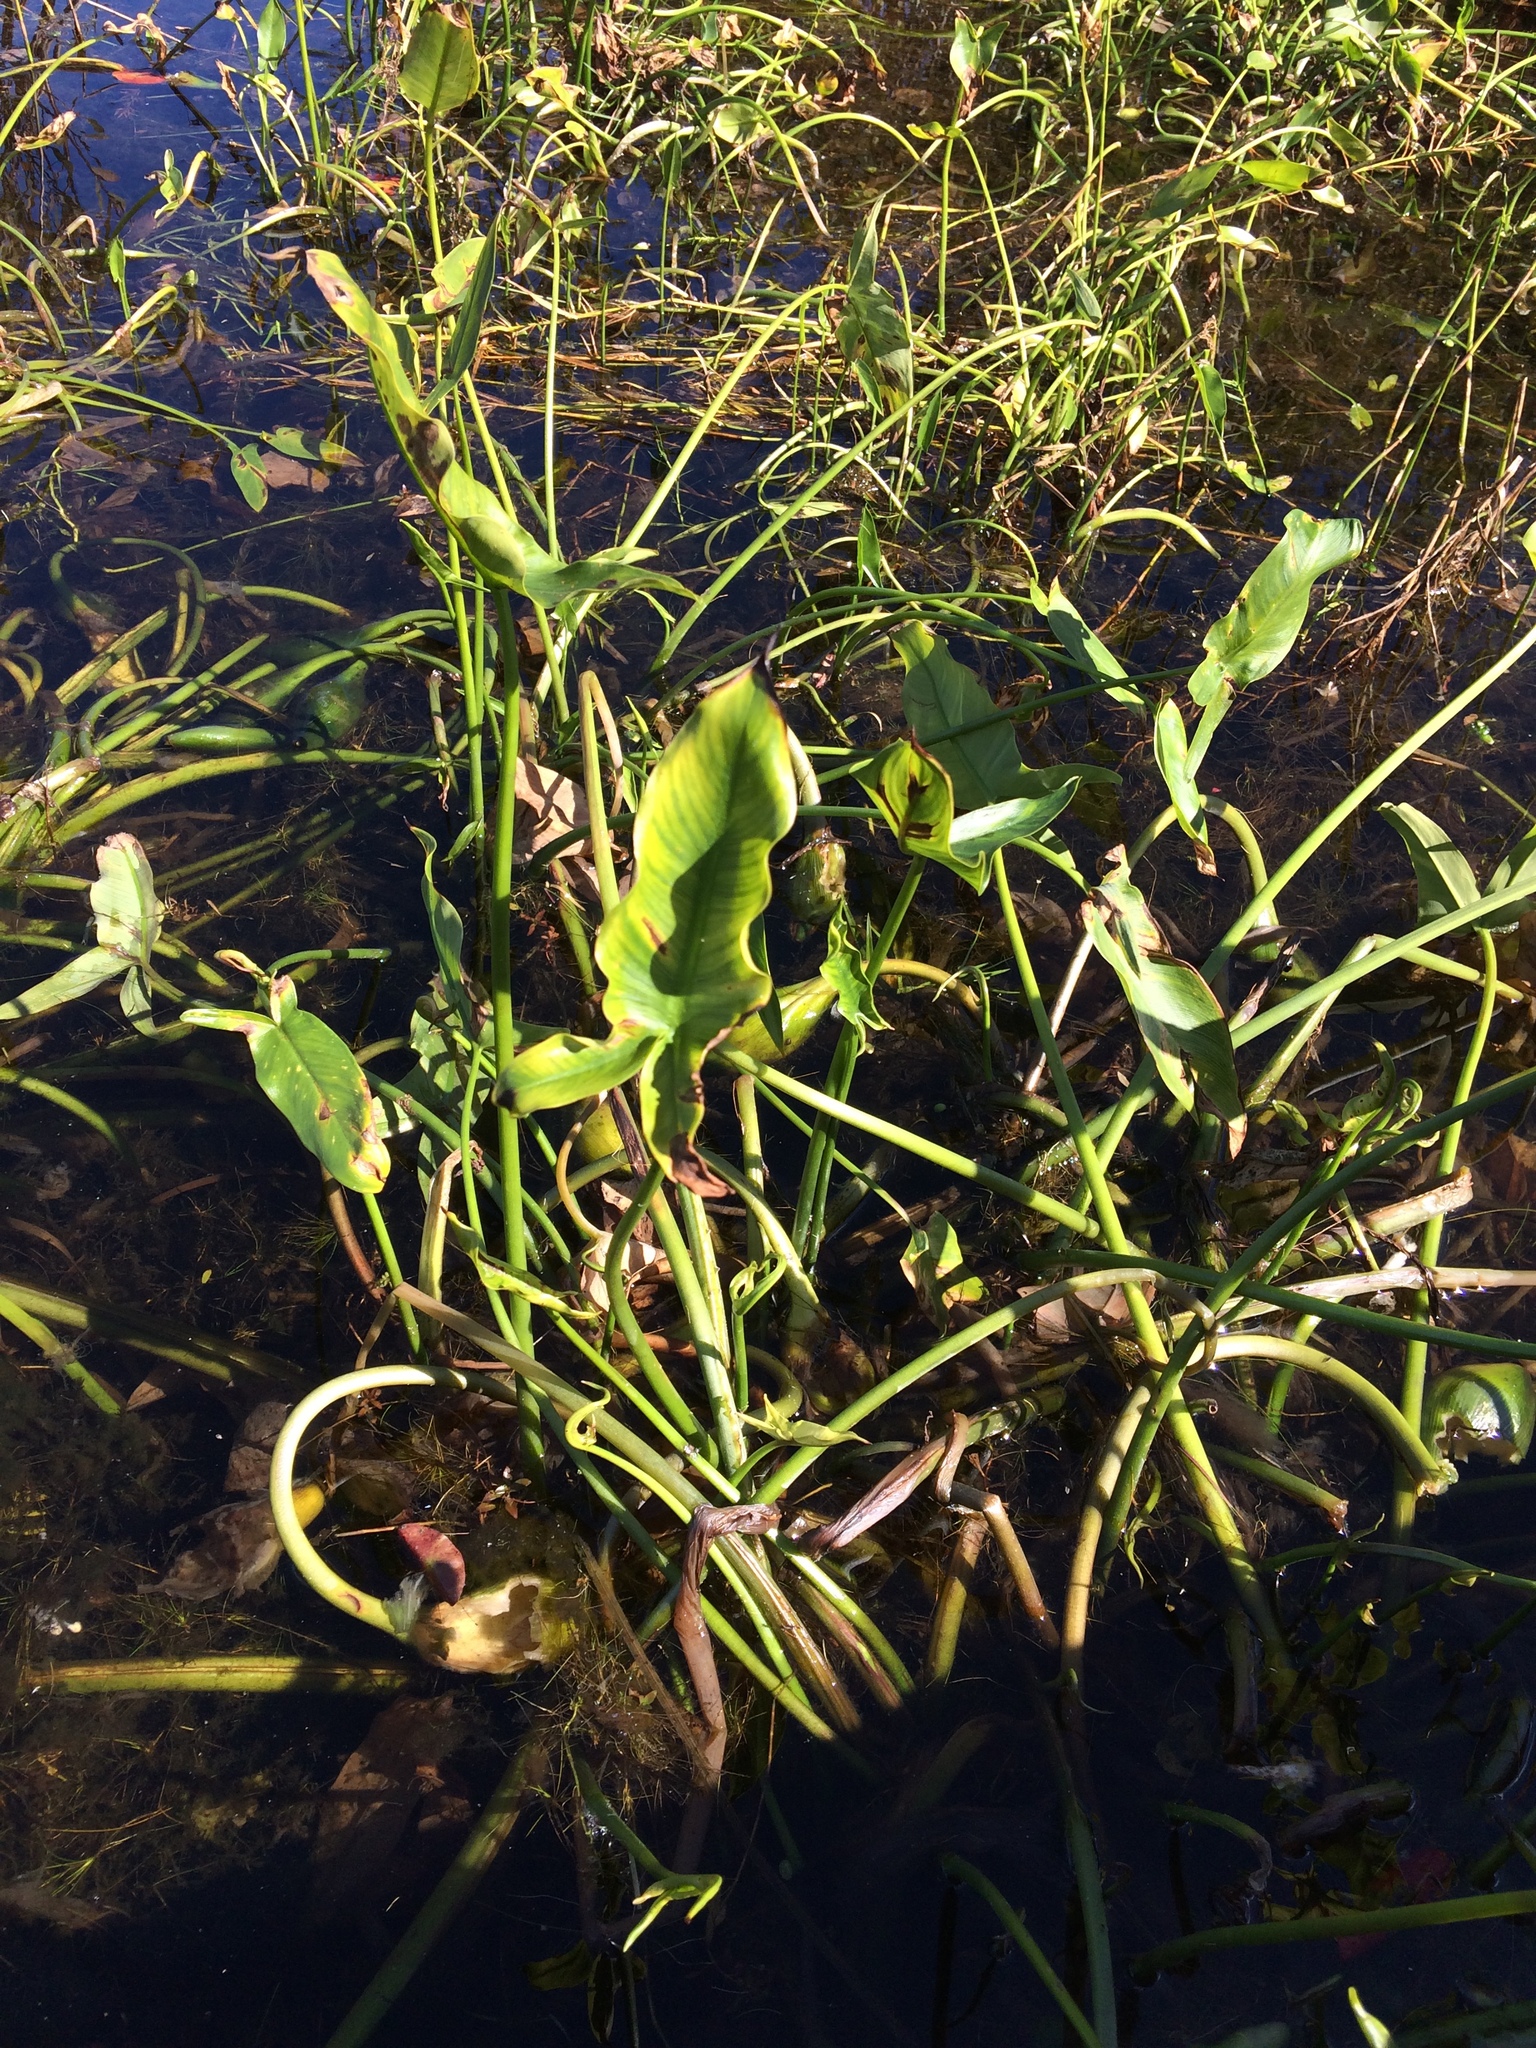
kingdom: Plantae
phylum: Tracheophyta
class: Liliopsida
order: Alismatales
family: Araceae
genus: Peltandra
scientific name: Peltandra virginica
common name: Arrow arum
